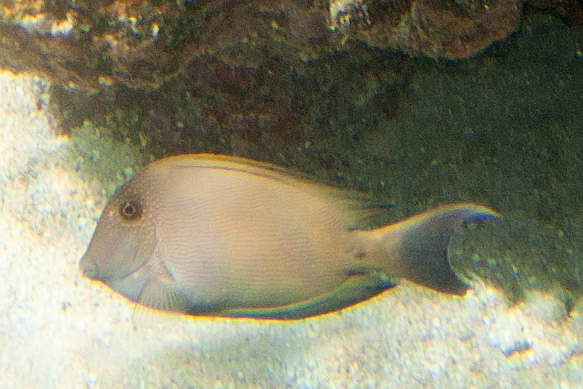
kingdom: Animalia
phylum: Chordata
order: Perciformes
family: Acanthuridae
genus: Ctenochaetus
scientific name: Ctenochaetus striatus
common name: Bristle-toothed surgeonfish
